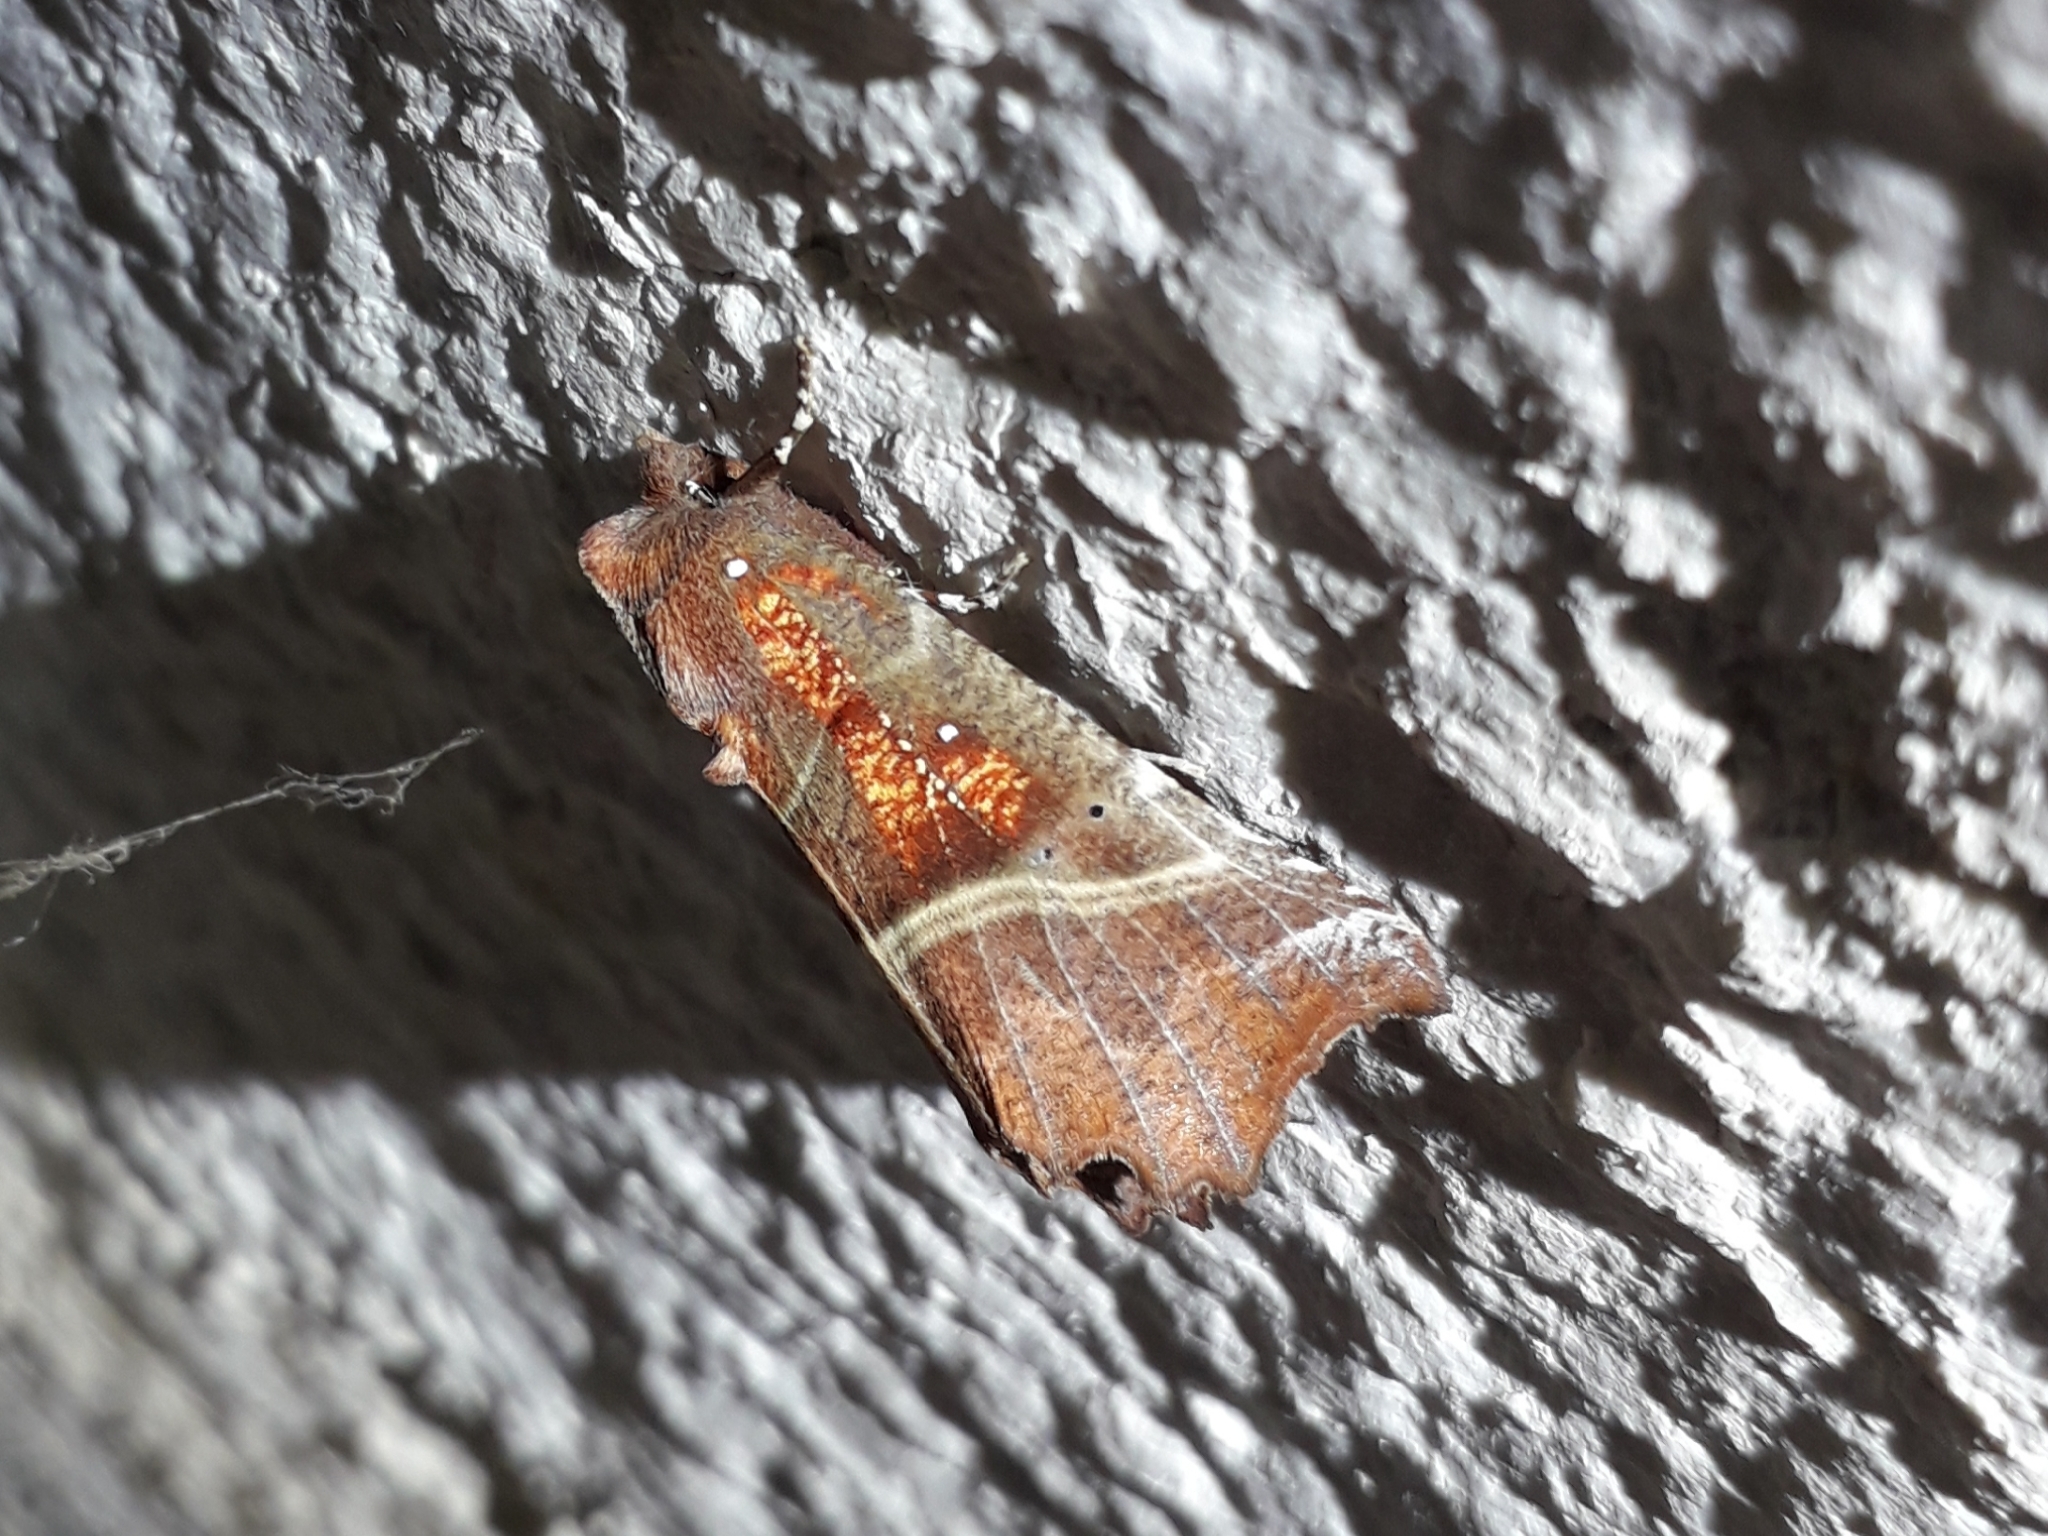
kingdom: Animalia
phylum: Arthropoda
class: Insecta
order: Lepidoptera
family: Erebidae
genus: Scoliopteryx
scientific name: Scoliopteryx libatrix
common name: Herald
